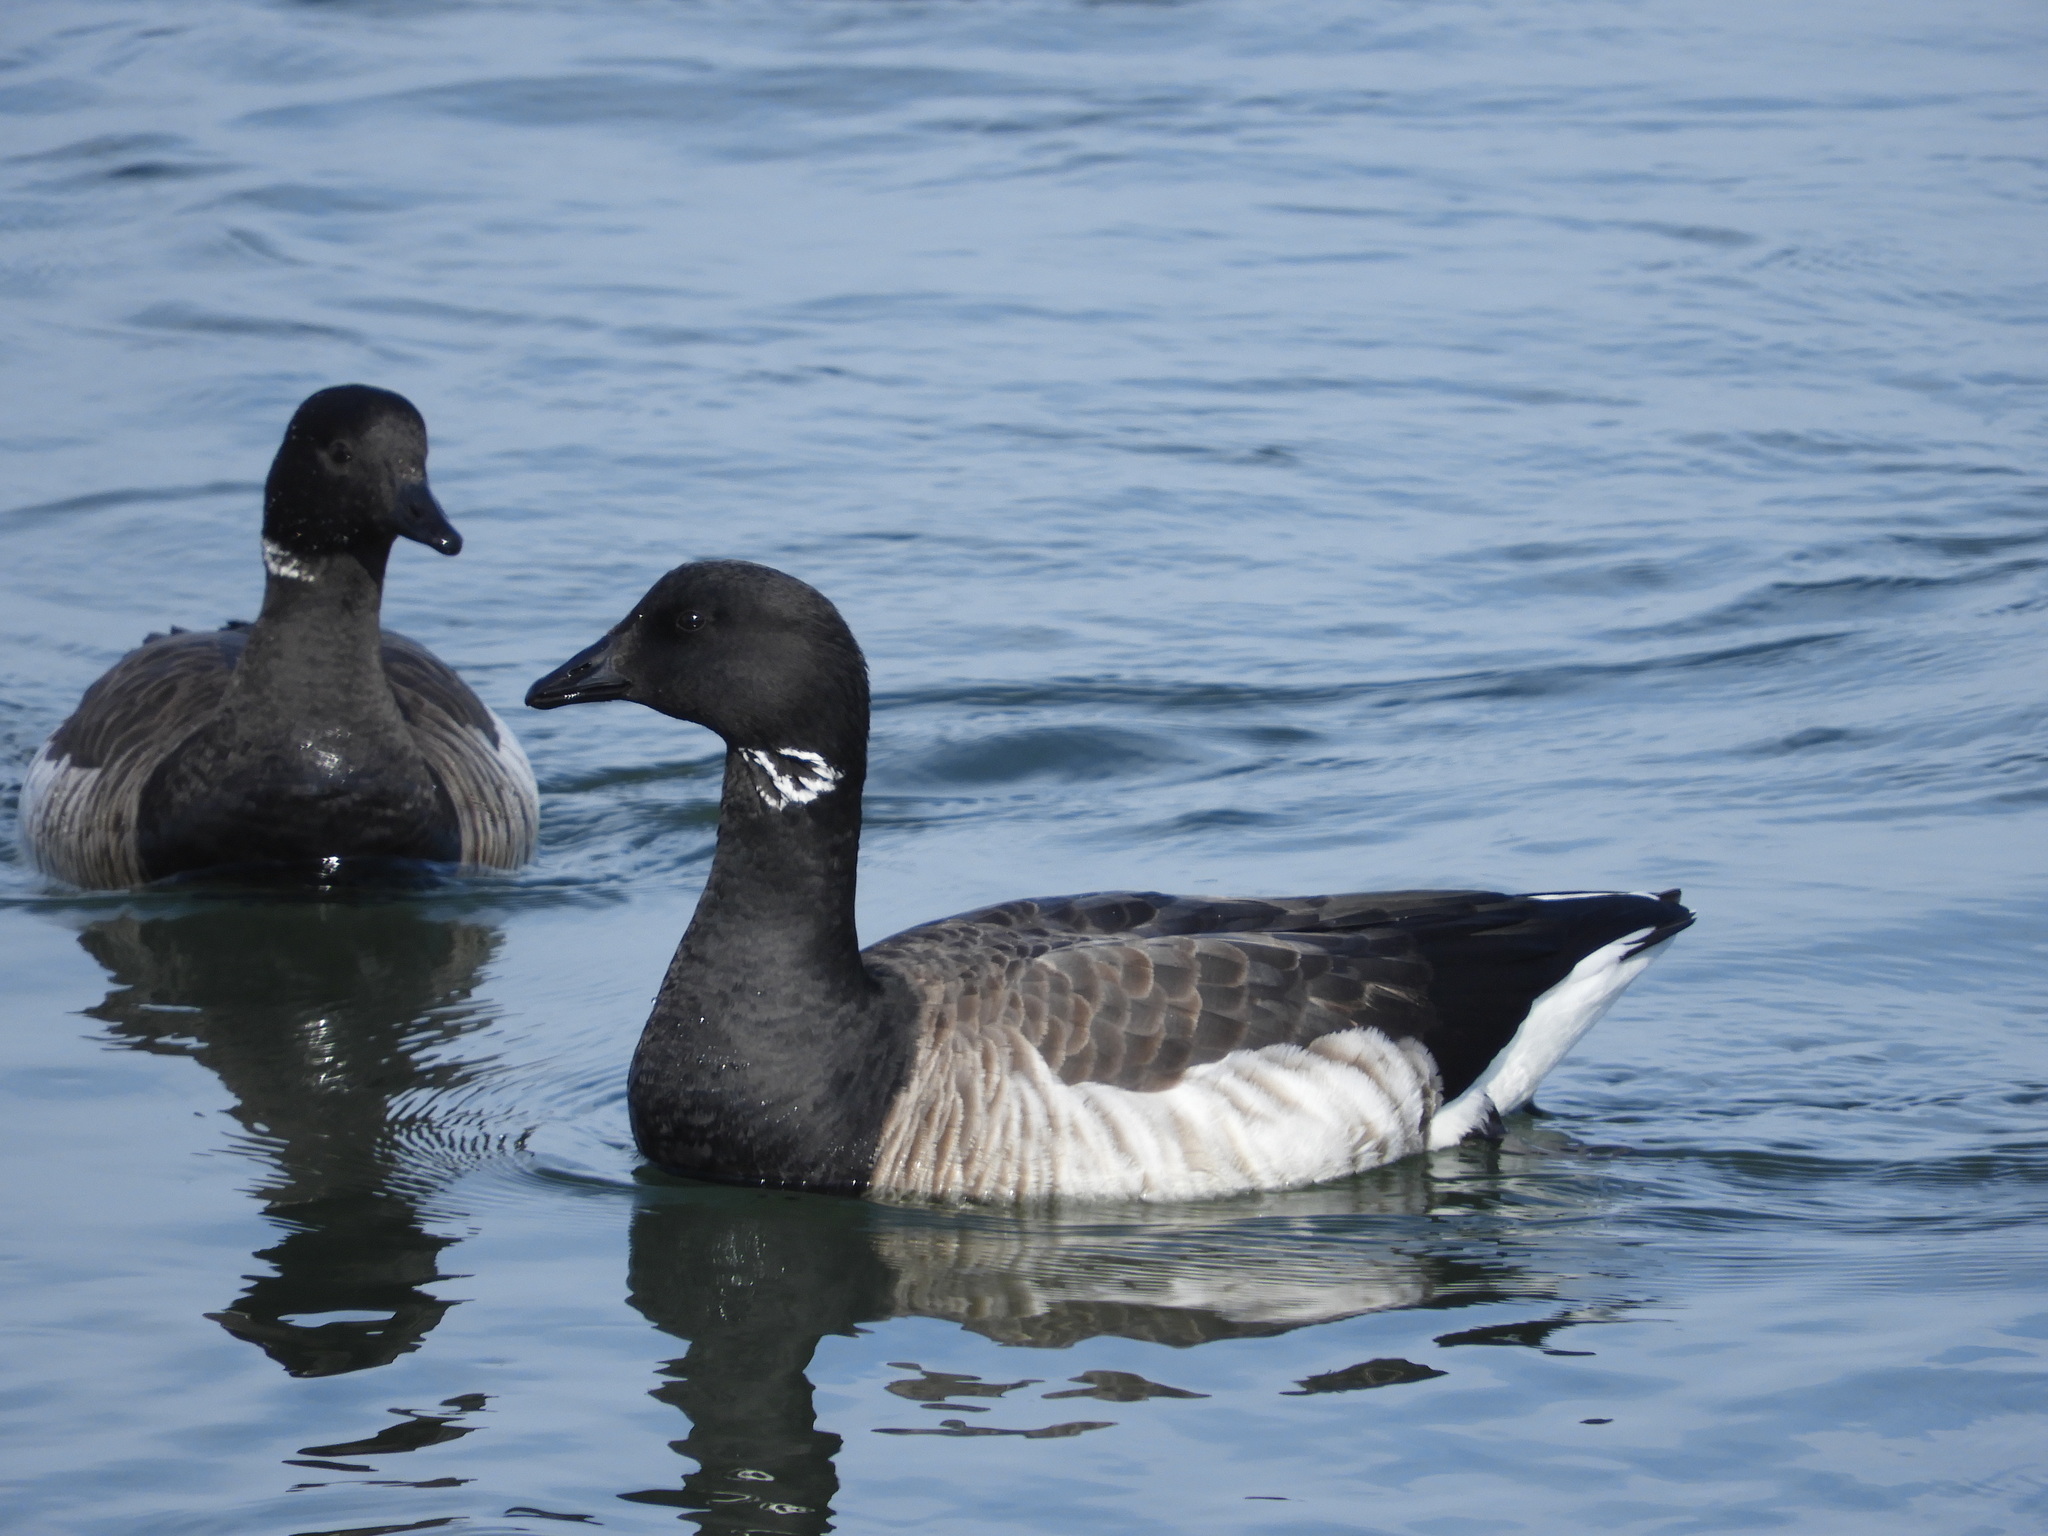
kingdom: Animalia
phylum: Chordata
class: Aves
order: Anseriformes
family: Anatidae
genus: Branta
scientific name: Branta bernicla
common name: Brant goose
